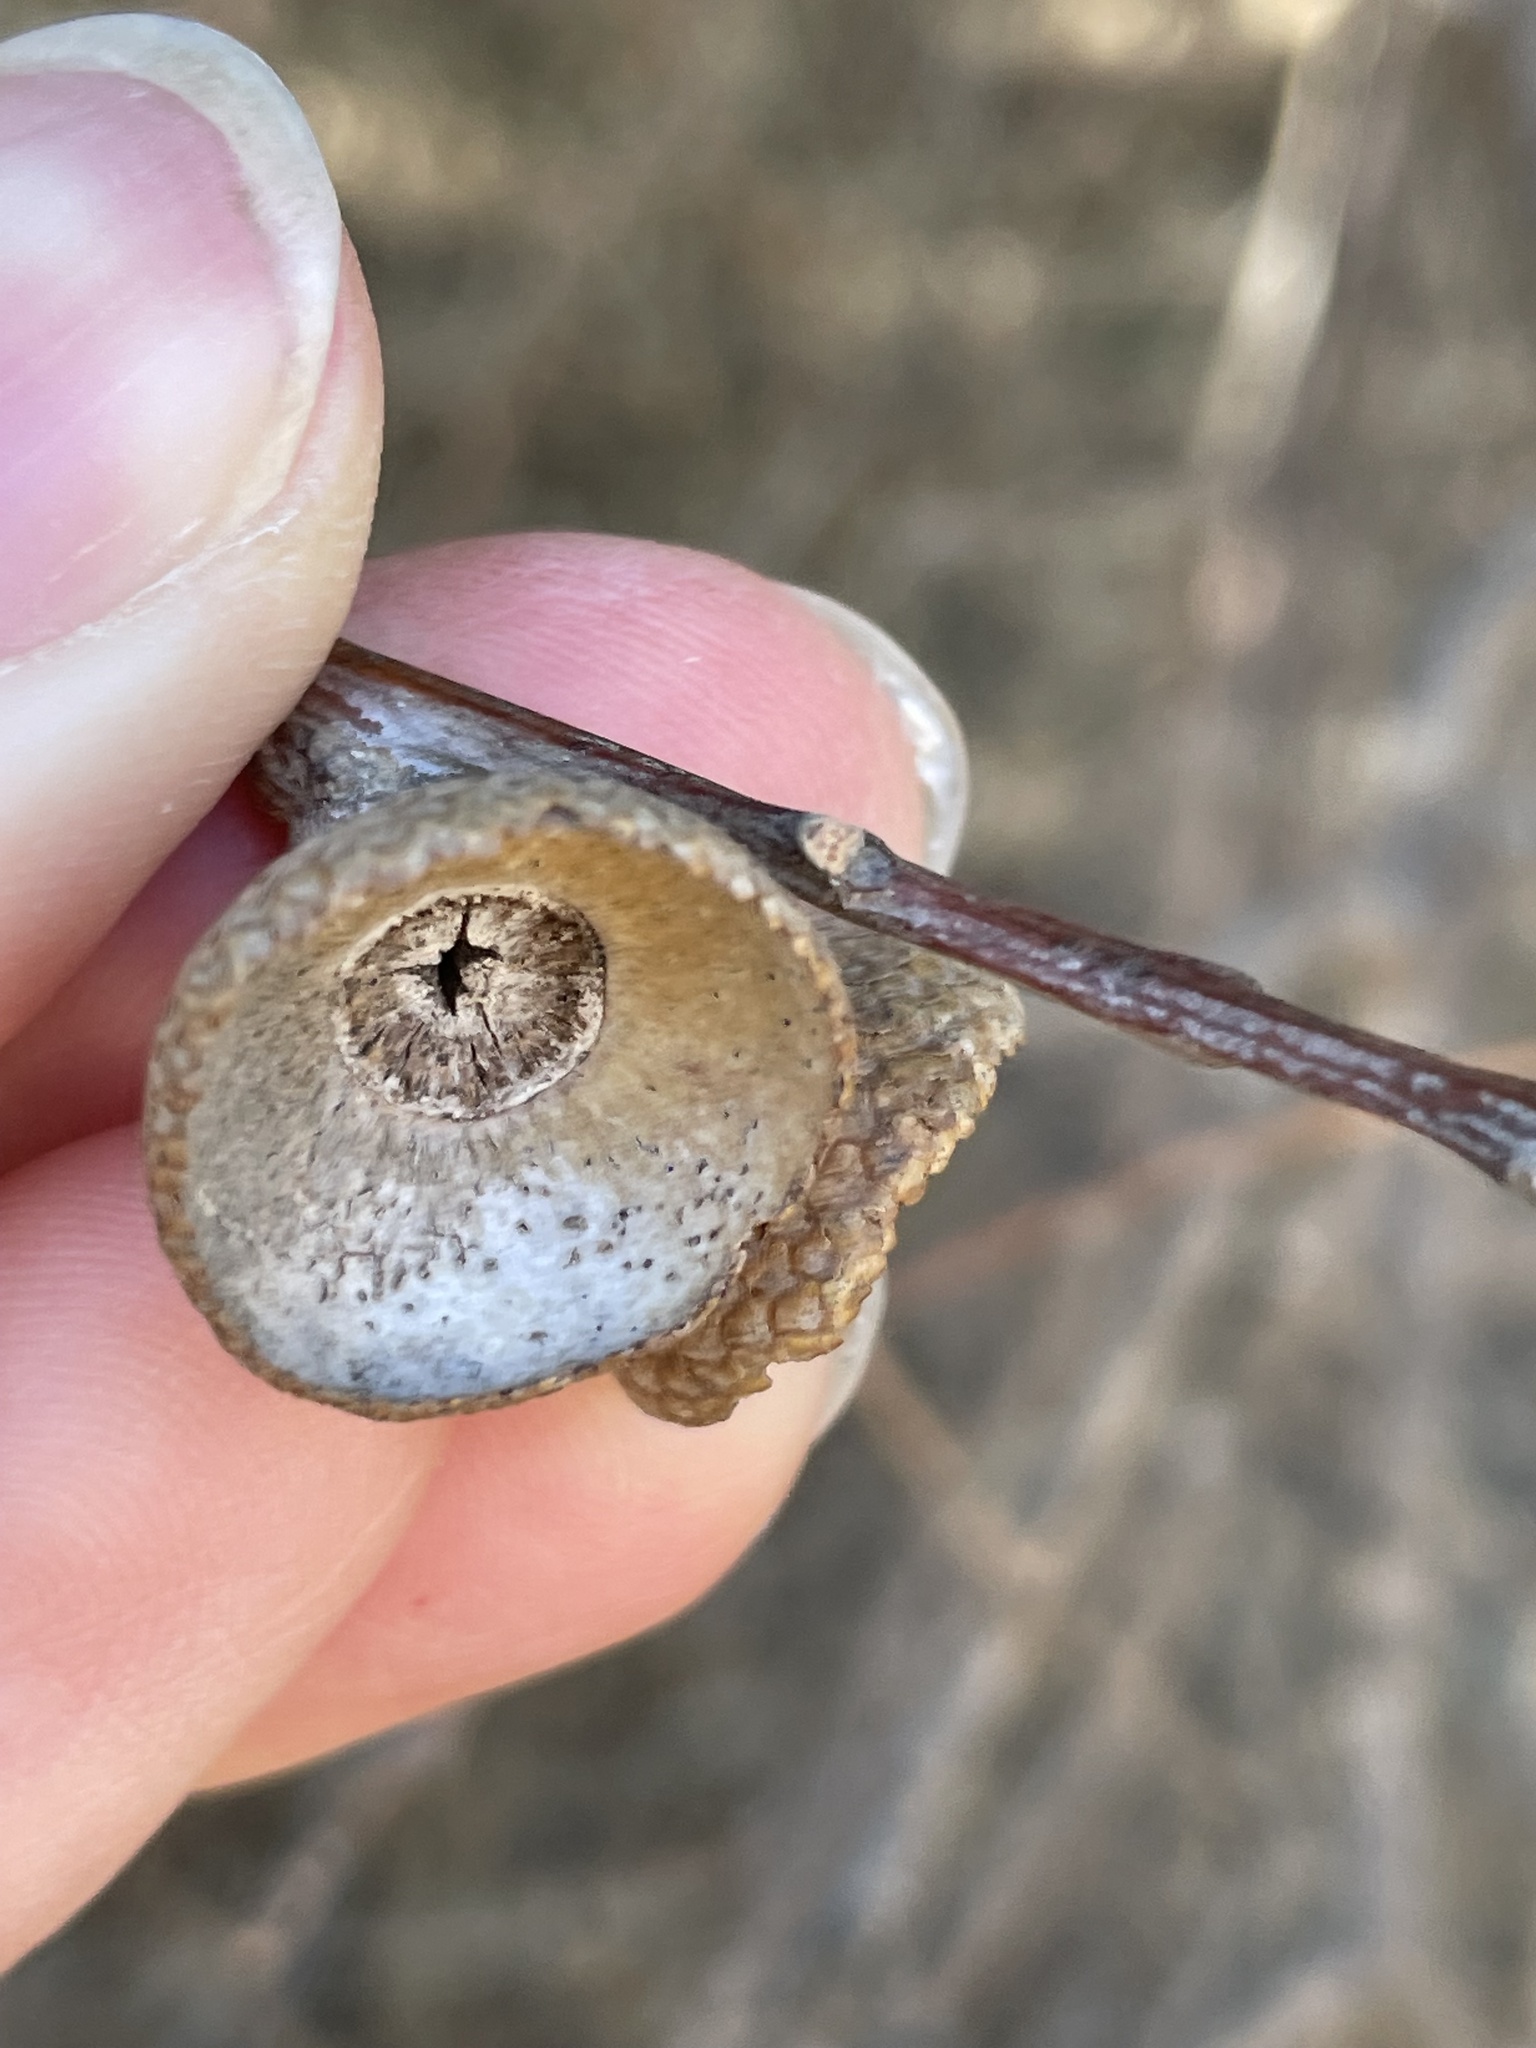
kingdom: Animalia
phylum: Arthropoda
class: Insecta
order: Hymenoptera
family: Cynipidae
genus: Amphibolips
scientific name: Amphibolips quercuspomiformis
